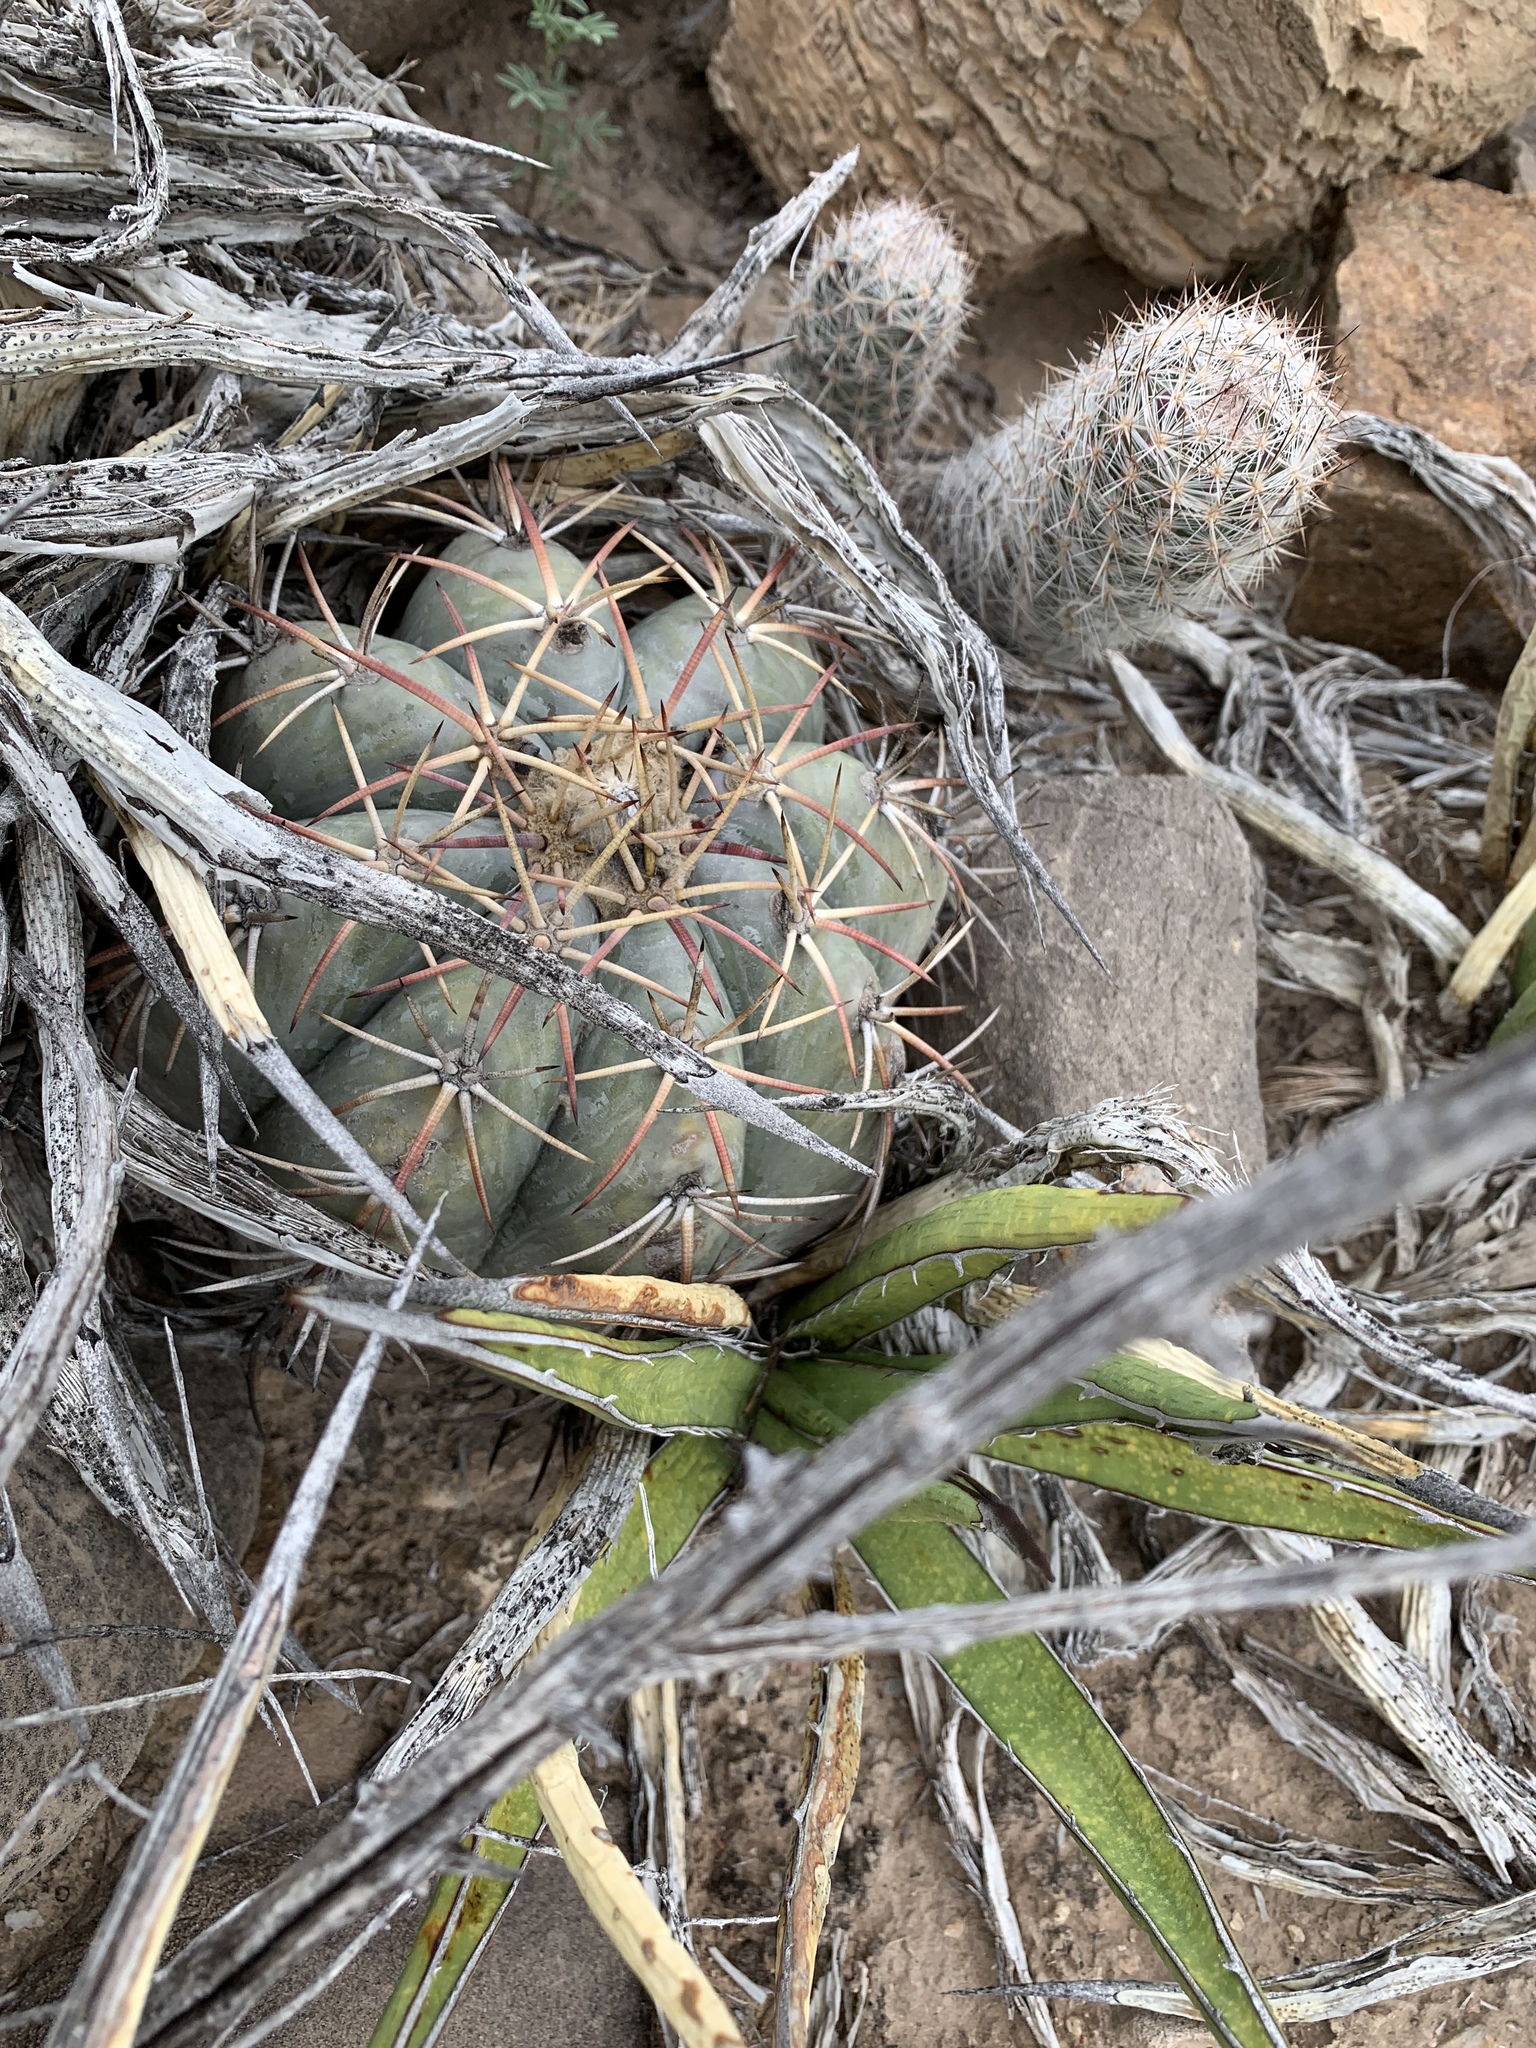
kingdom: Plantae
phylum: Tracheophyta
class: Magnoliopsida
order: Caryophyllales
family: Cactaceae
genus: Echinocactus
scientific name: Echinocactus horizonthalonius
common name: Devilshead
